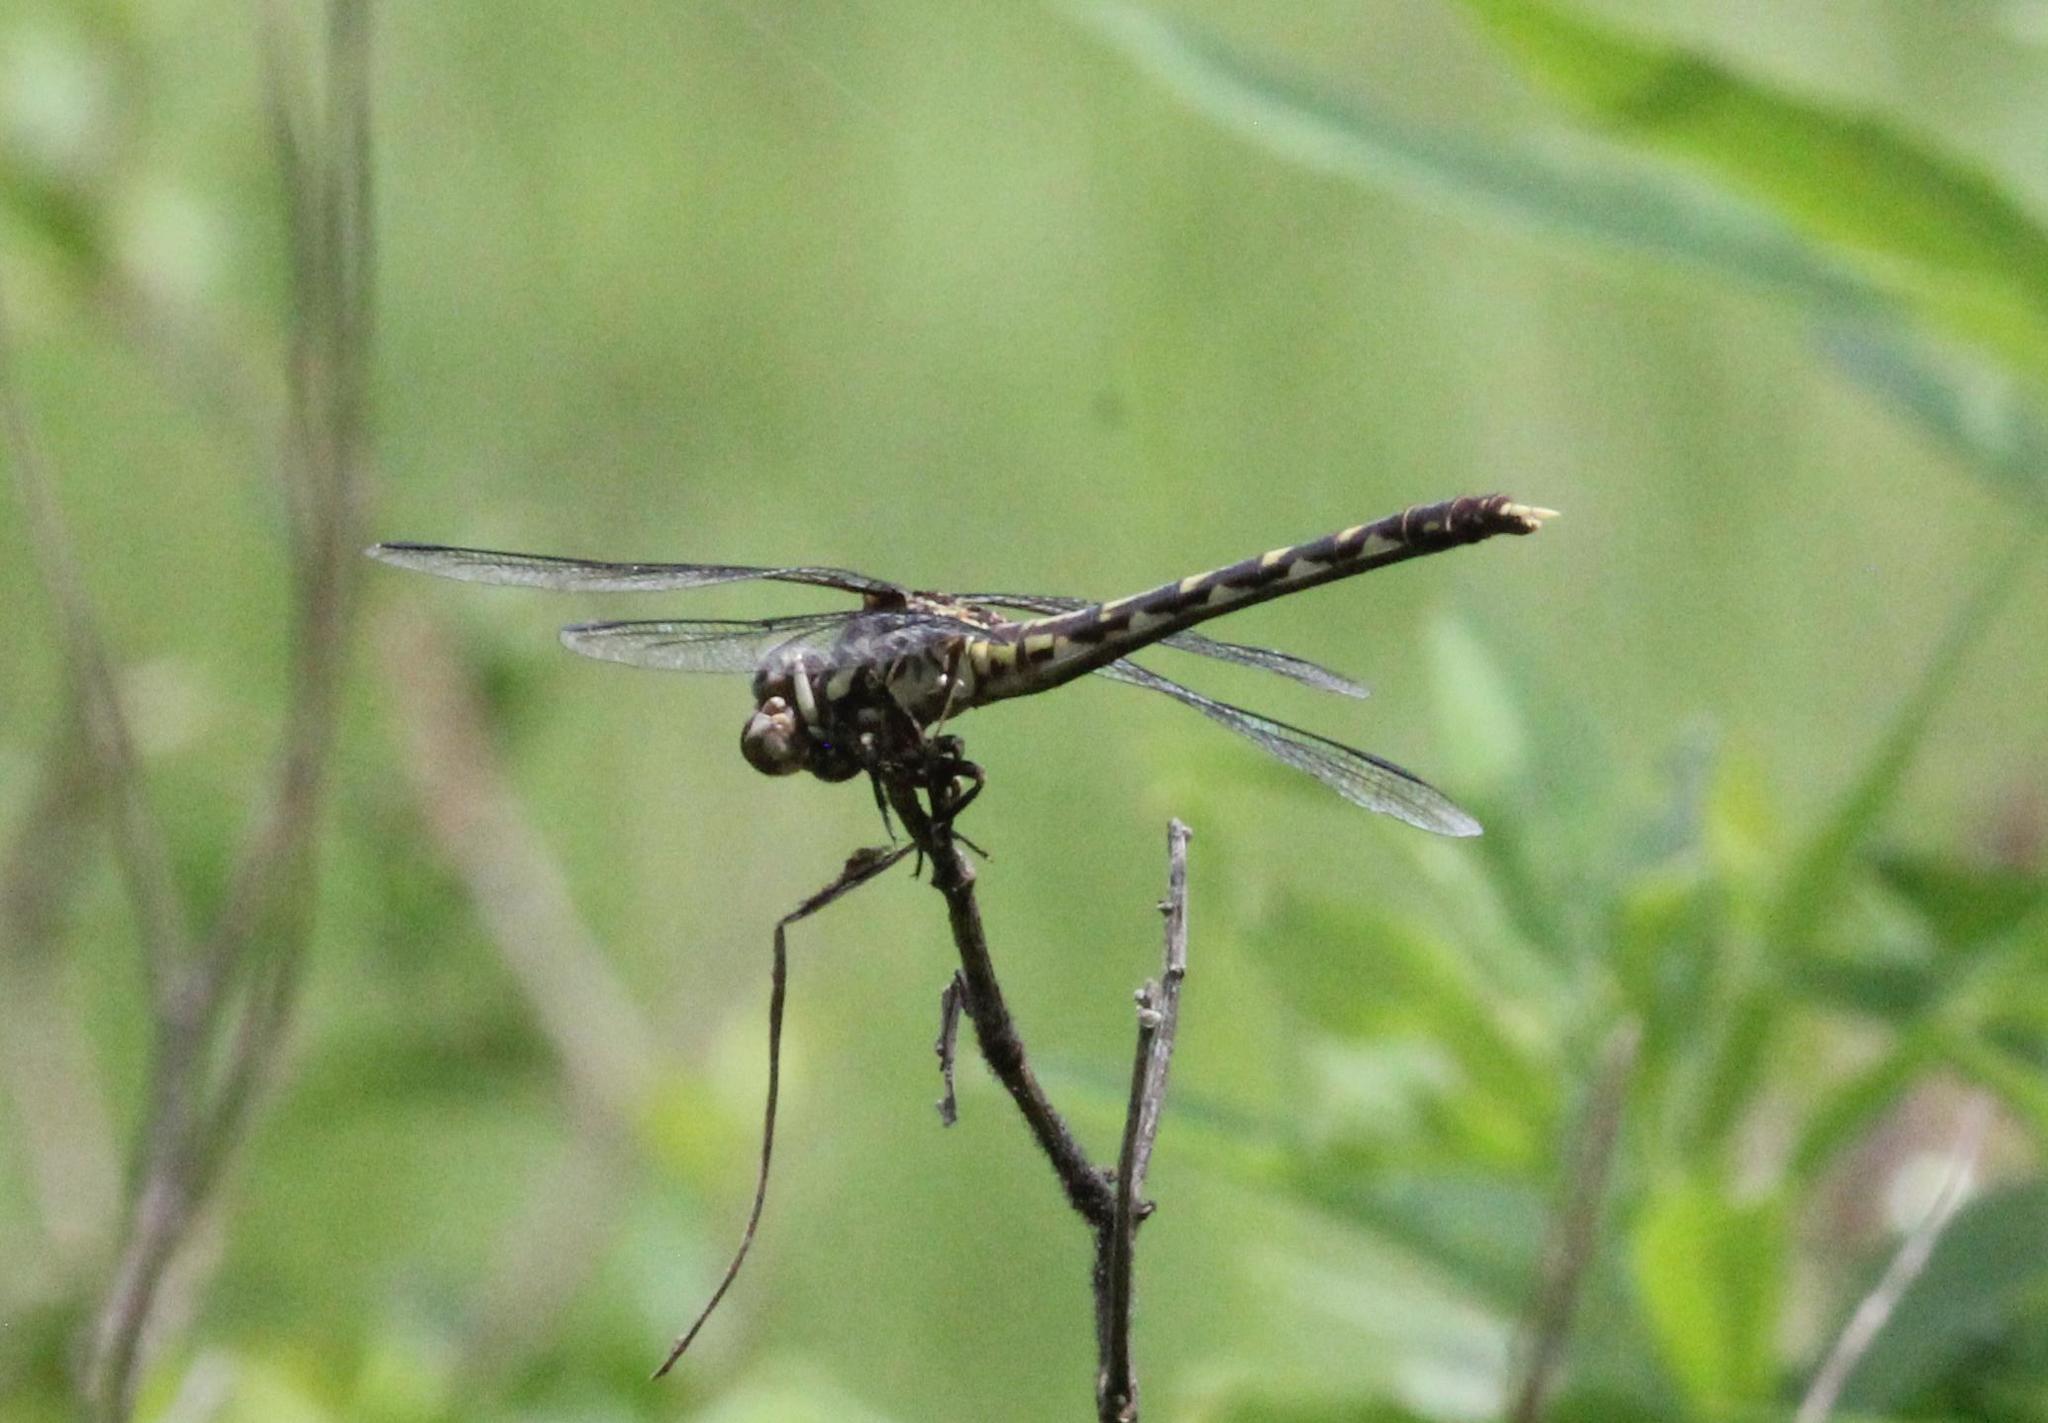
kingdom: Animalia
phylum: Arthropoda
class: Insecta
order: Odonata
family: Gomphidae
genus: Progomphus
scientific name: Progomphus obscurus
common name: Common sanddragon
